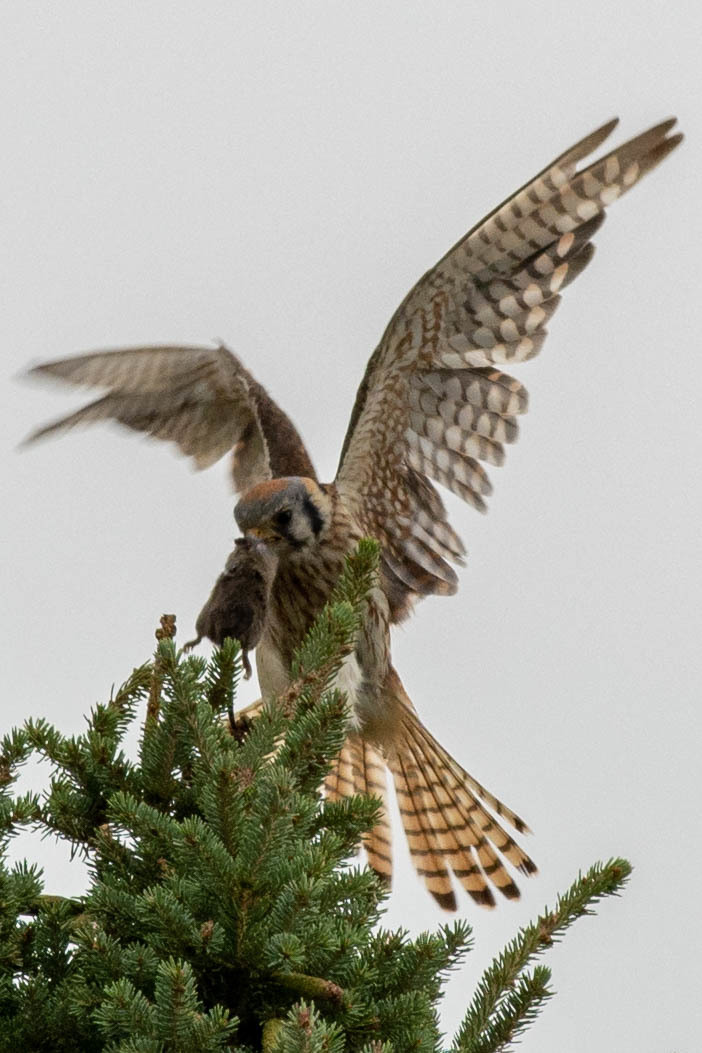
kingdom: Animalia
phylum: Chordata
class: Aves
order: Falconiformes
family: Falconidae
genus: Falco
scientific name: Falco sparverius
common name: American kestrel
